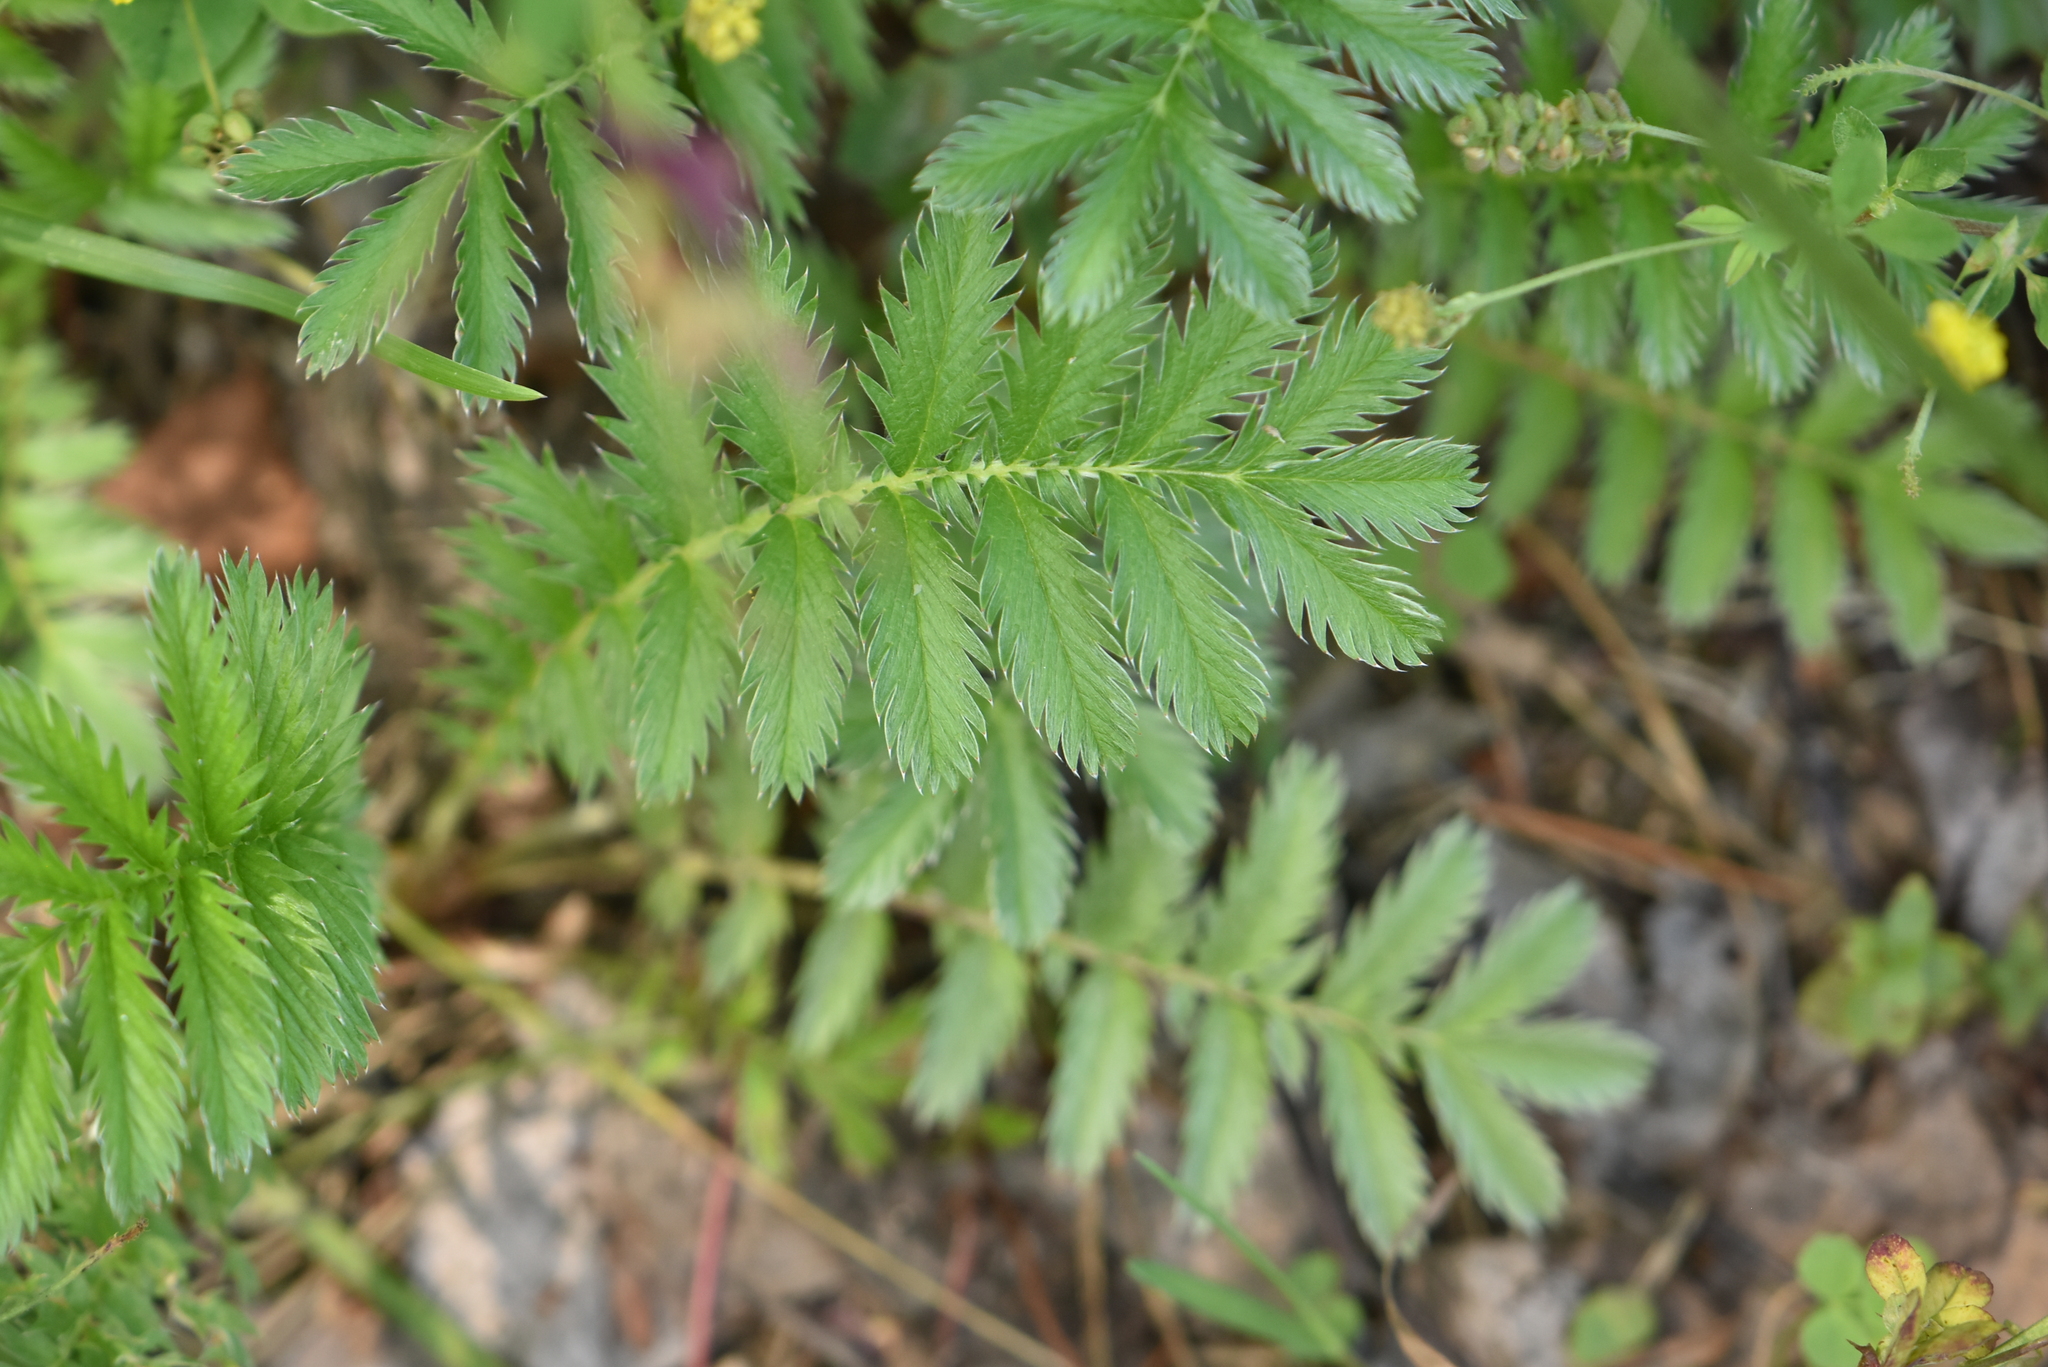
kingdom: Plantae
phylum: Tracheophyta
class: Magnoliopsida
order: Rosales
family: Rosaceae
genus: Argentina
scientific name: Argentina anserina
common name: Common silverweed
